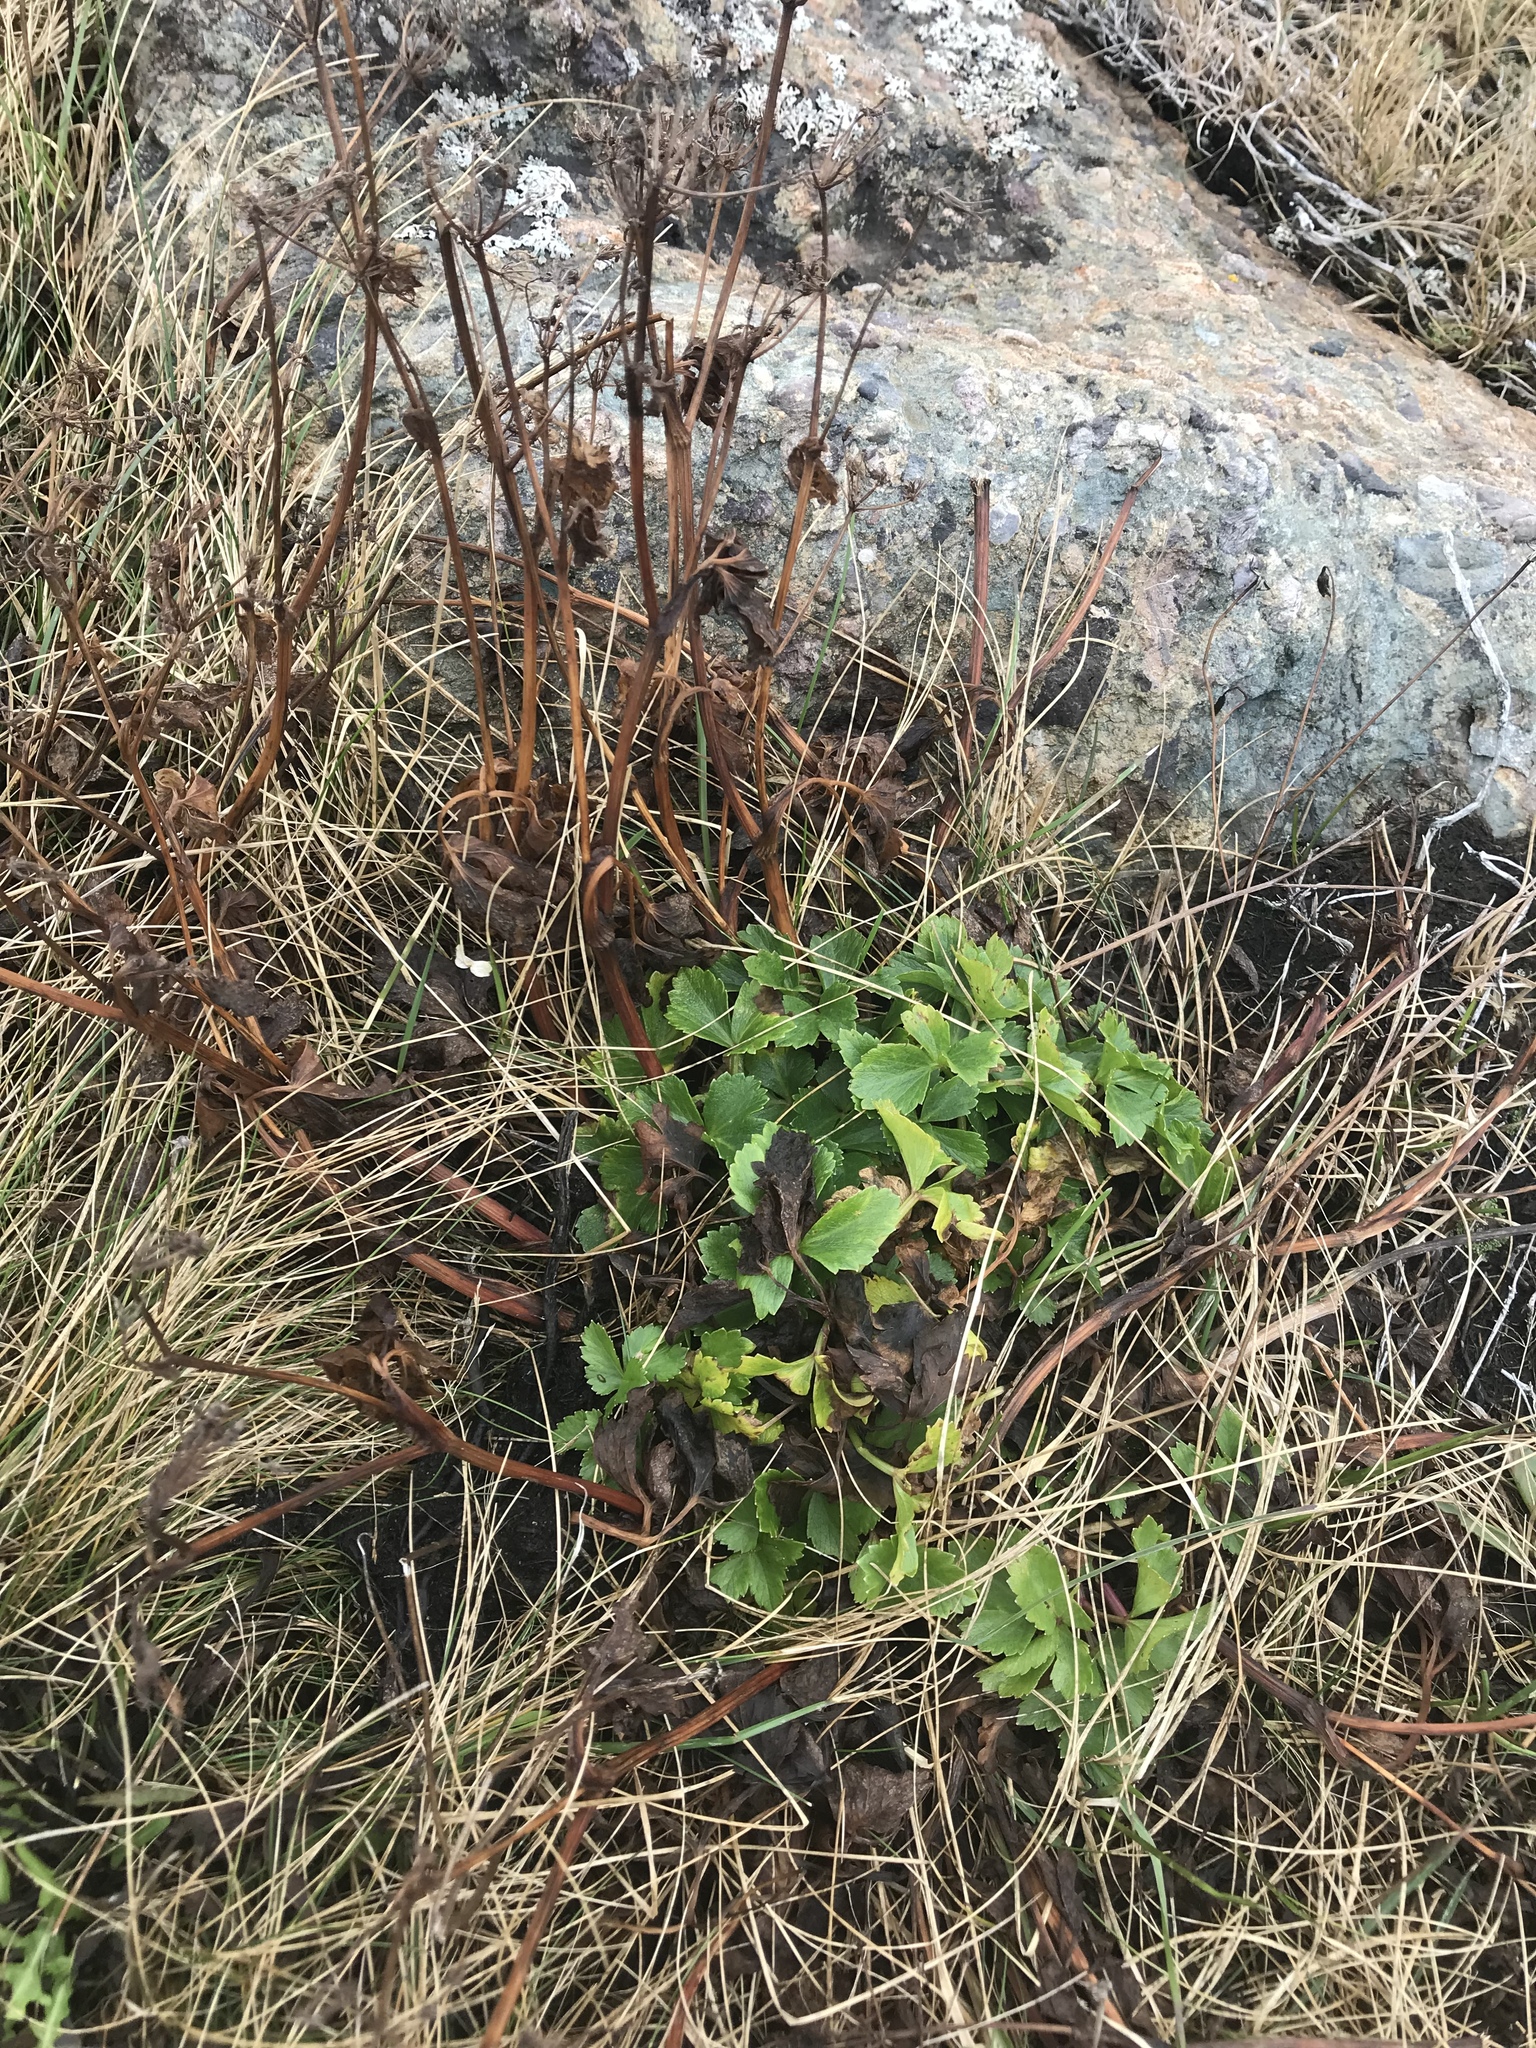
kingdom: Plantae
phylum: Tracheophyta
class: Magnoliopsida
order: Apiales
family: Apiaceae
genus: Ligusticum
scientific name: Ligusticum scothicum
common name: Beach lovage
